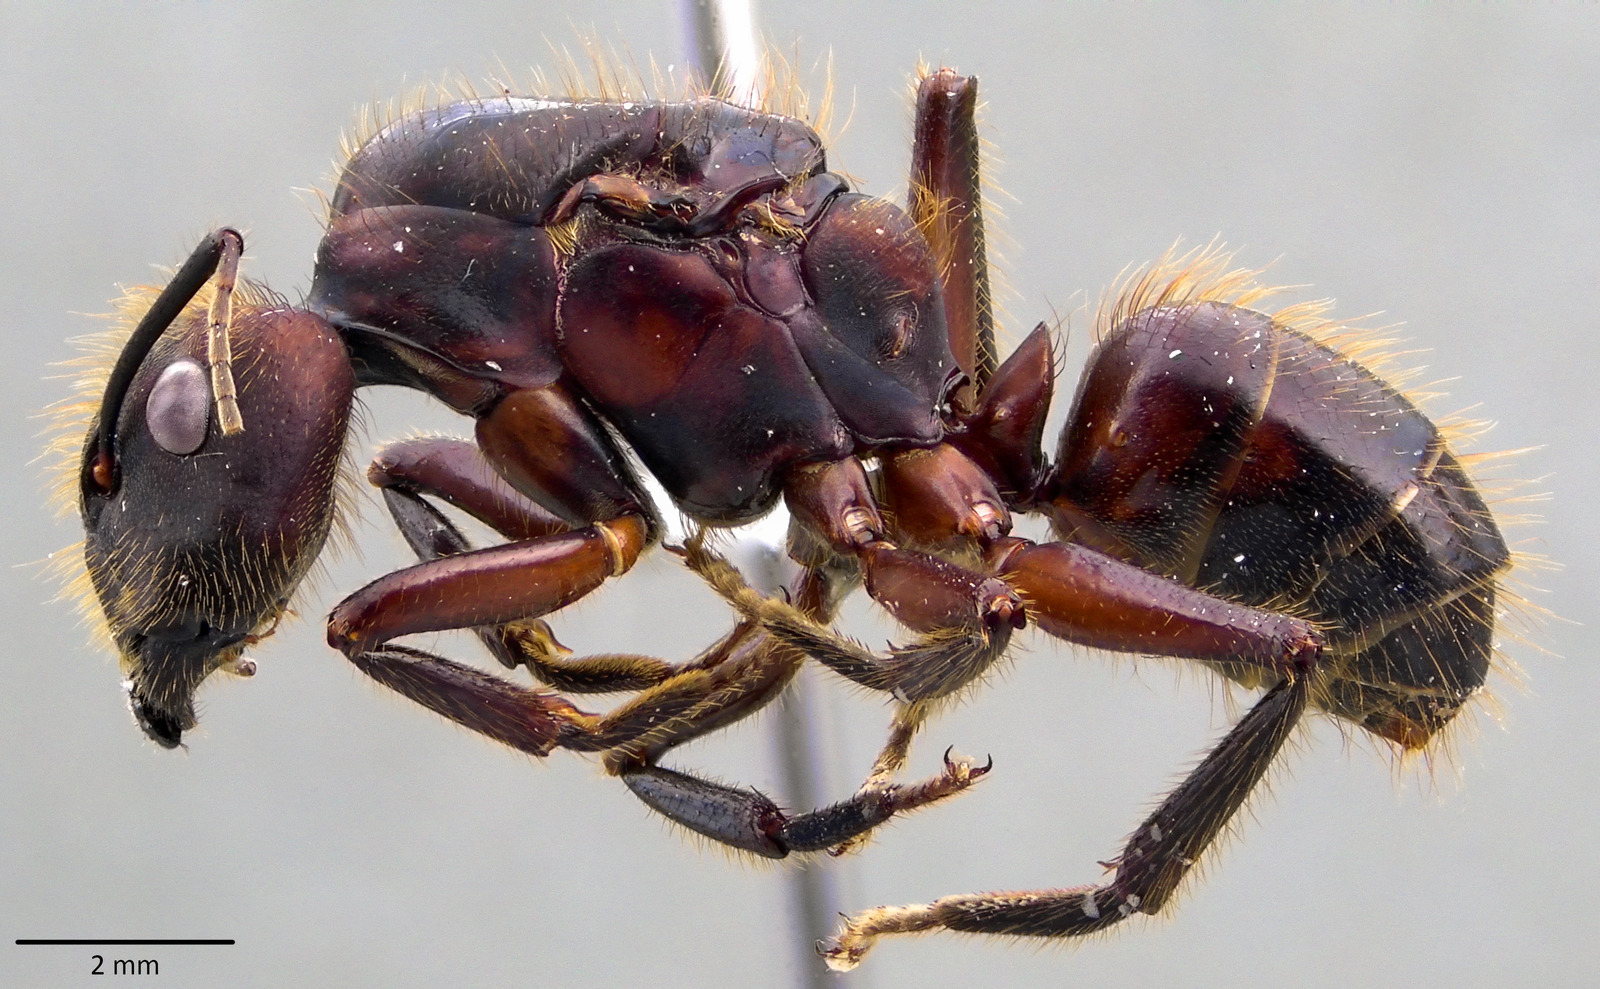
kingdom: Animalia
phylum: Arthropoda
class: Insecta
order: Hymenoptera
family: Formicidae
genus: Camponotus
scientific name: Camponotus misturus
